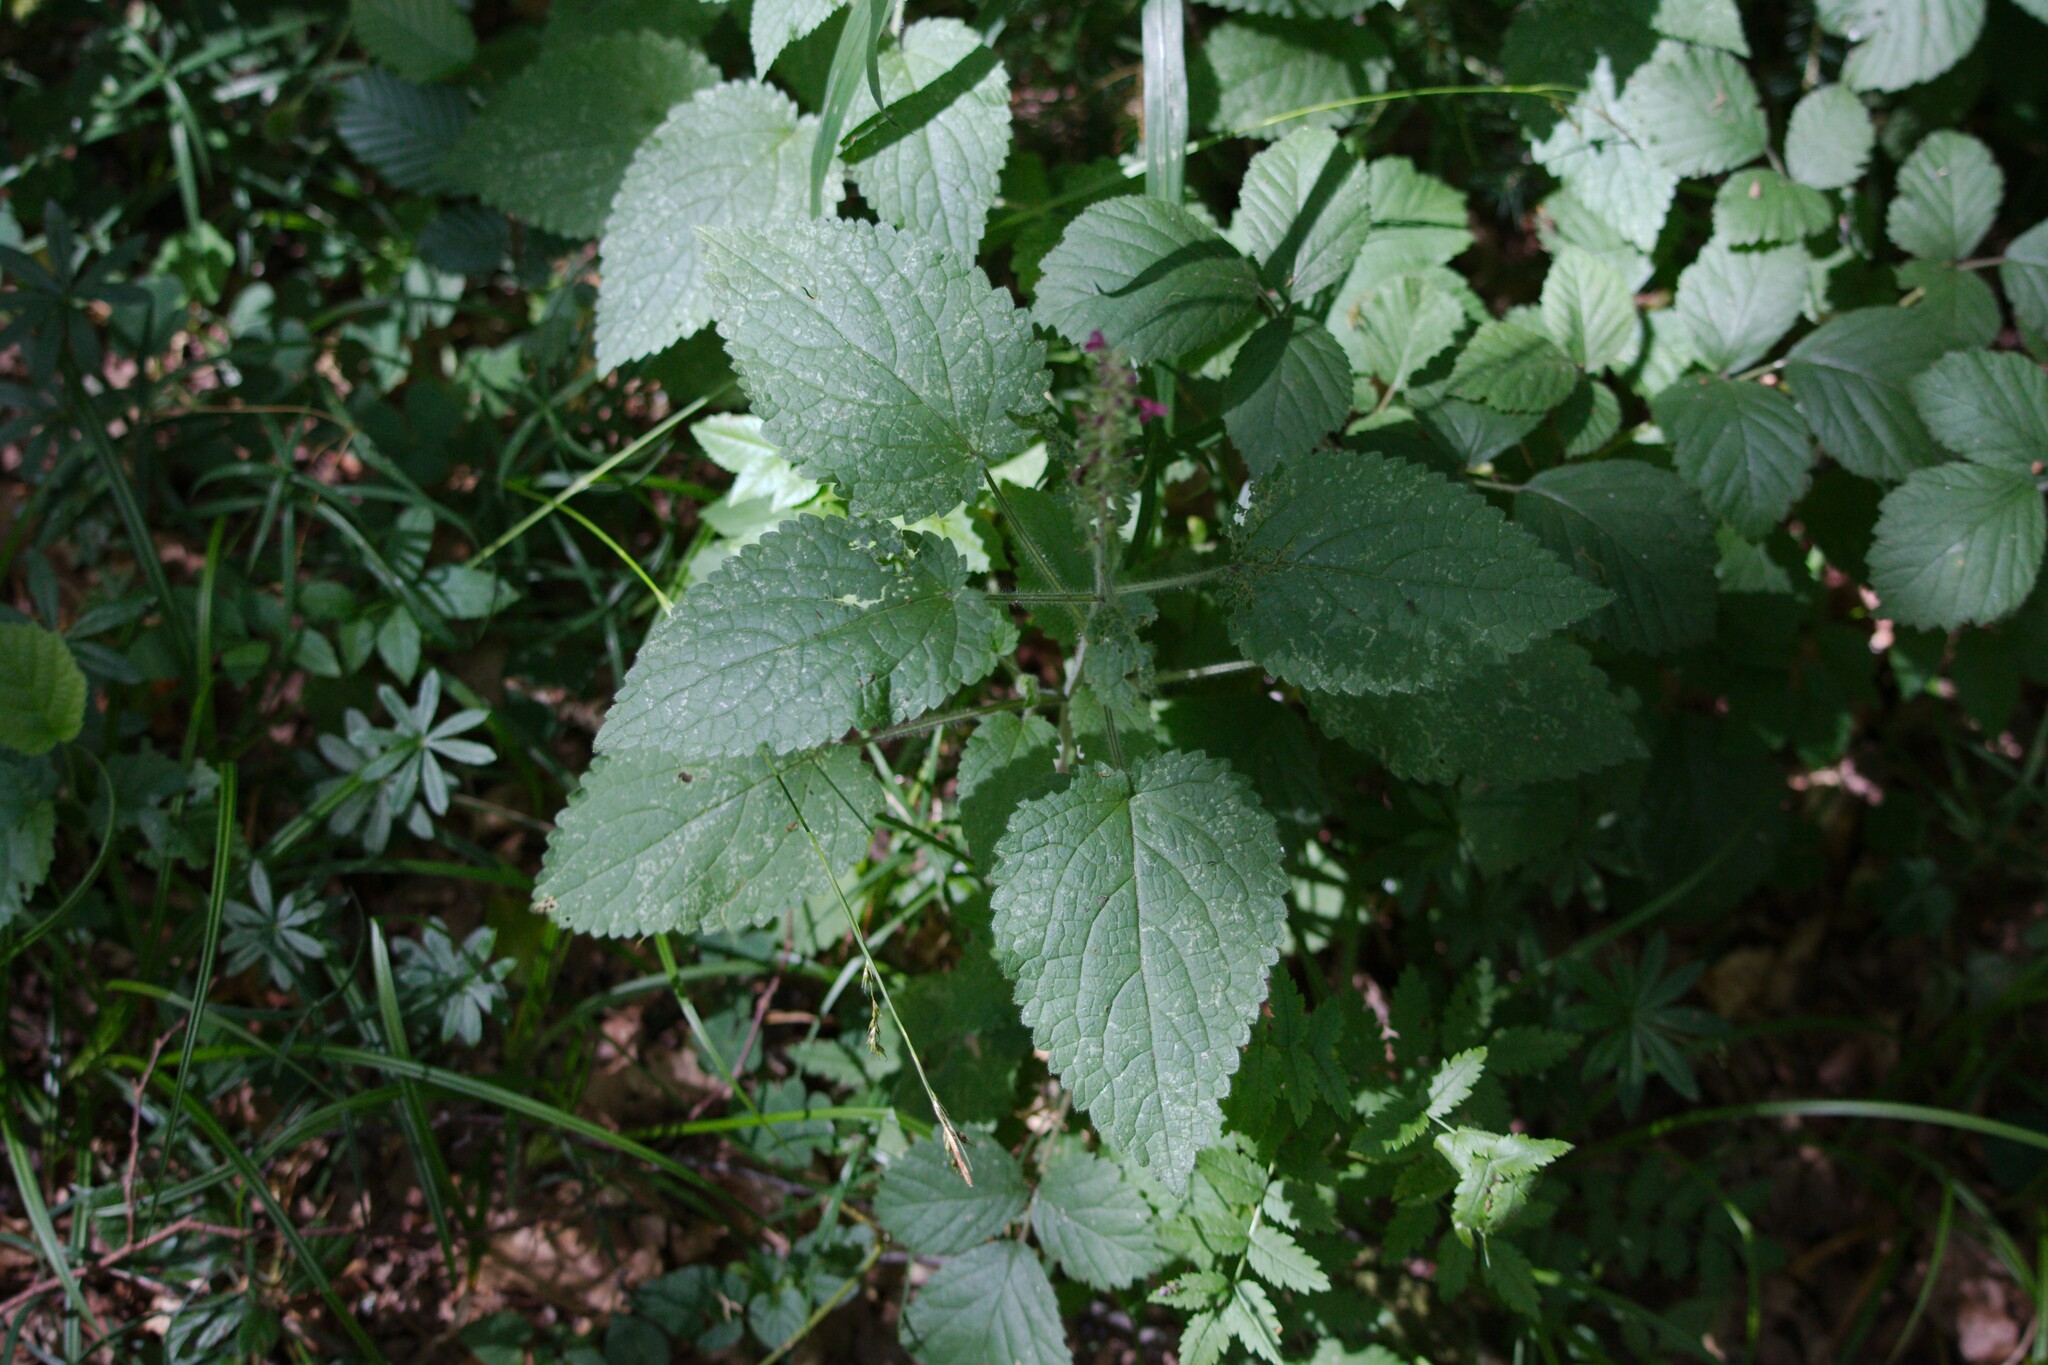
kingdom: Plantae
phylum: Tracheophyta
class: Magnoliopsida
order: Lamiales
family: Lamiaceae
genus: Stachys
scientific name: Stachys sylvatica
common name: Hedge woundwort
